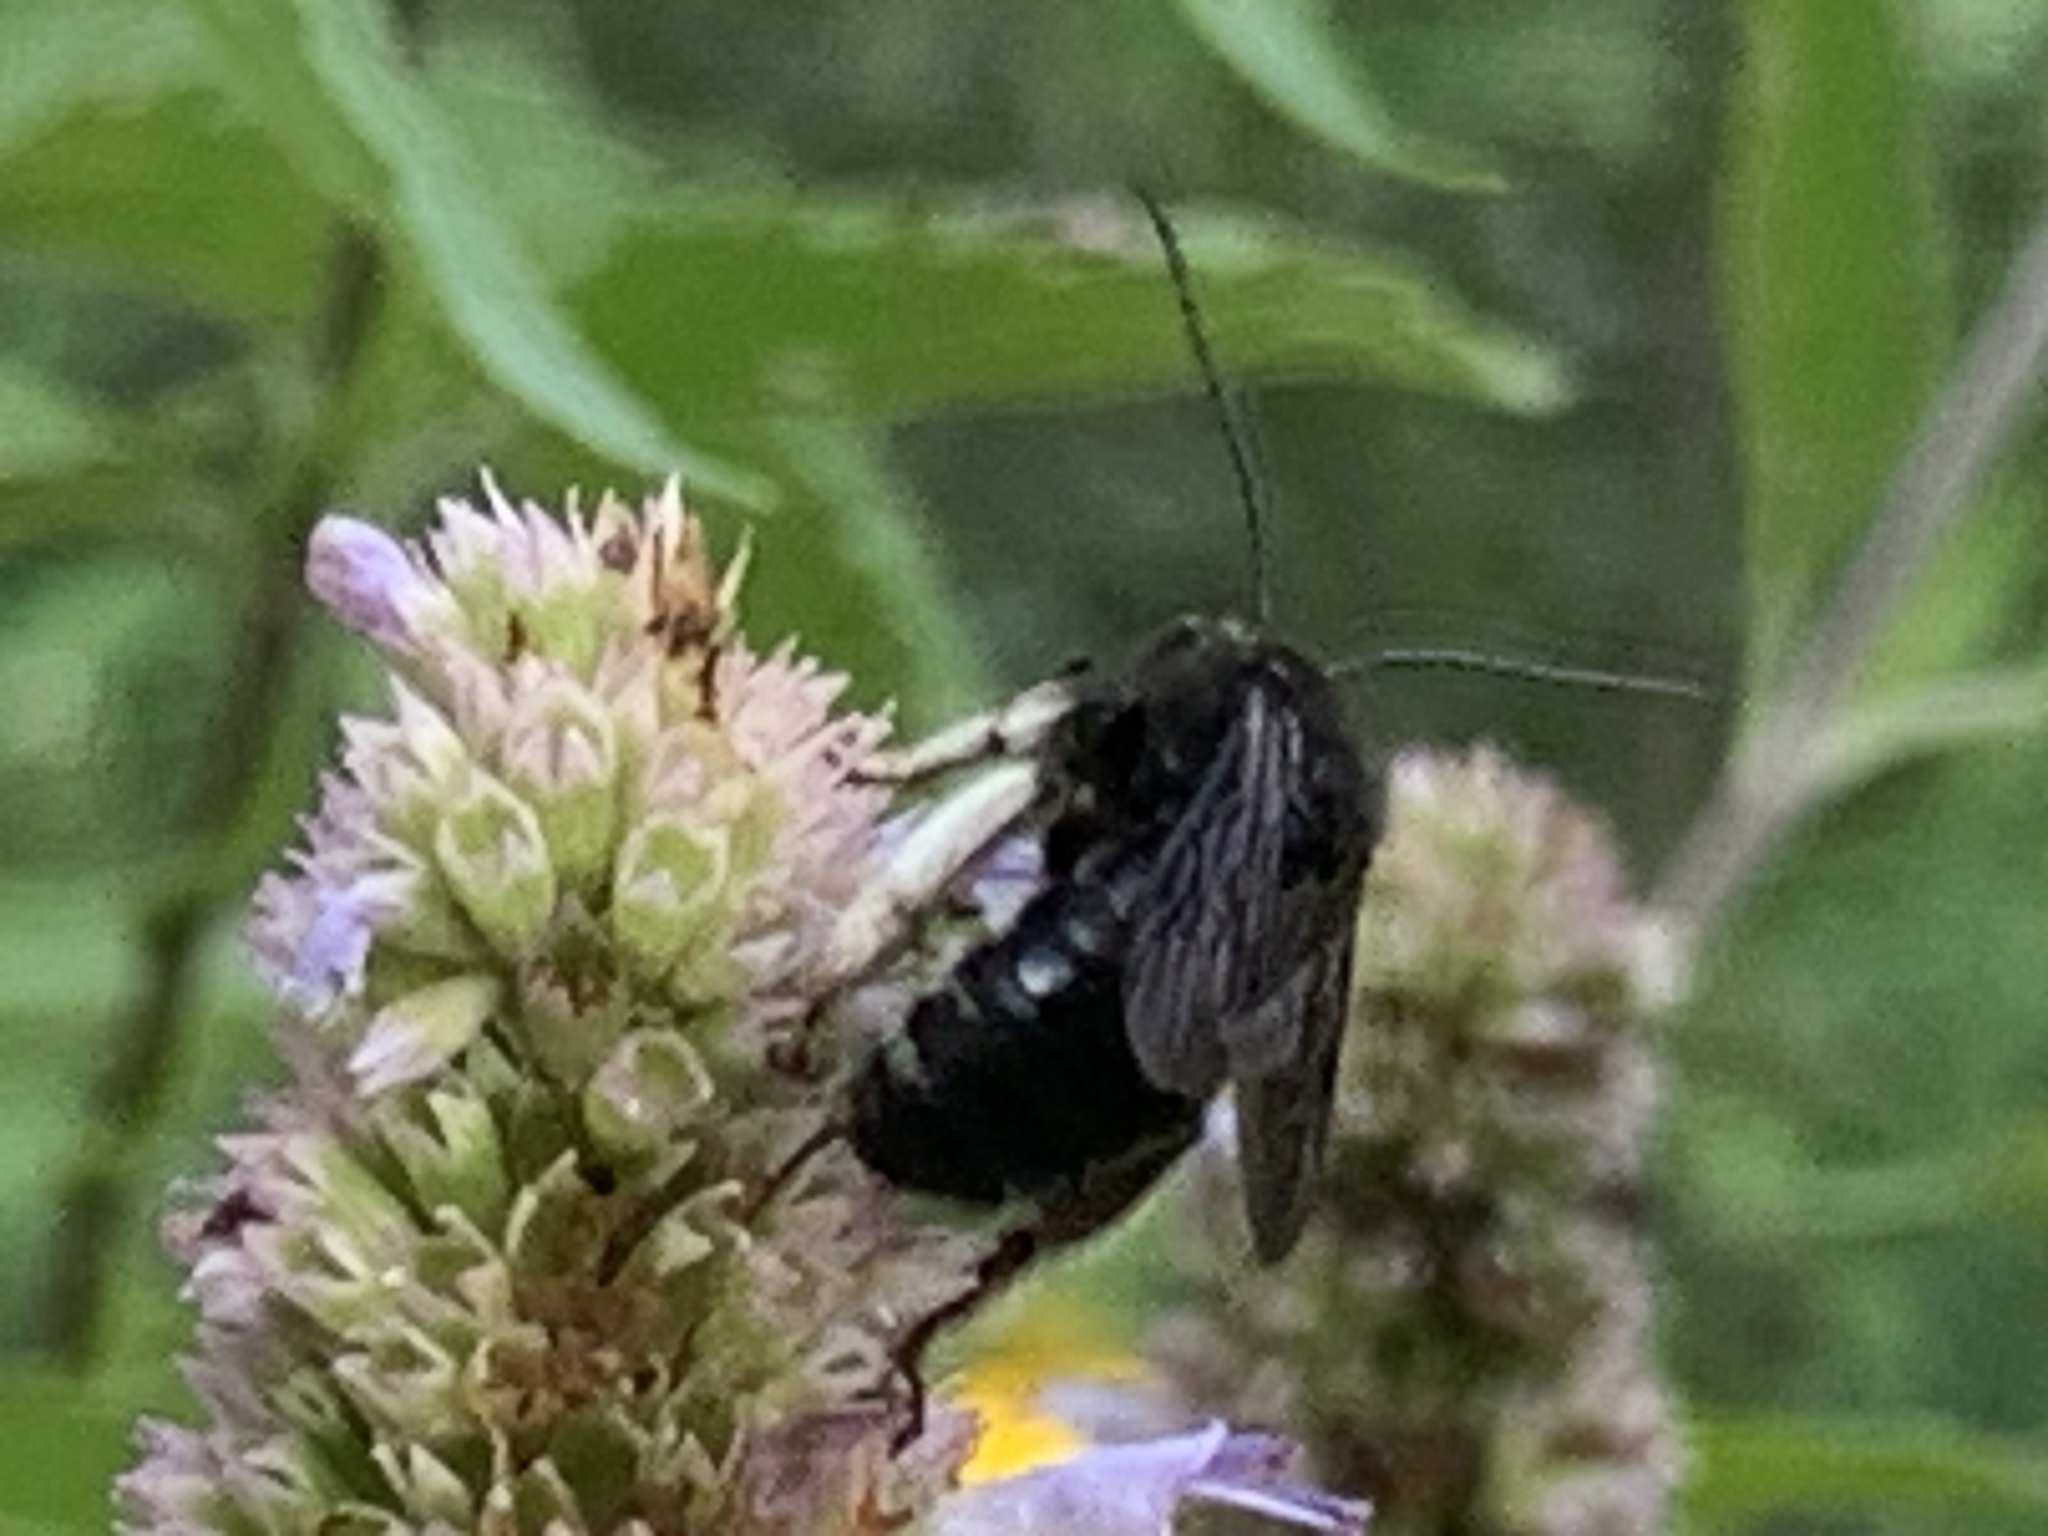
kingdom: Animalia
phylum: Arthropoda
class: Insecta
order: Hymenoptera
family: Apidae
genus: Melissodes
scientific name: Melissodes bimaculatus
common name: Two-spotted long-horned bee
